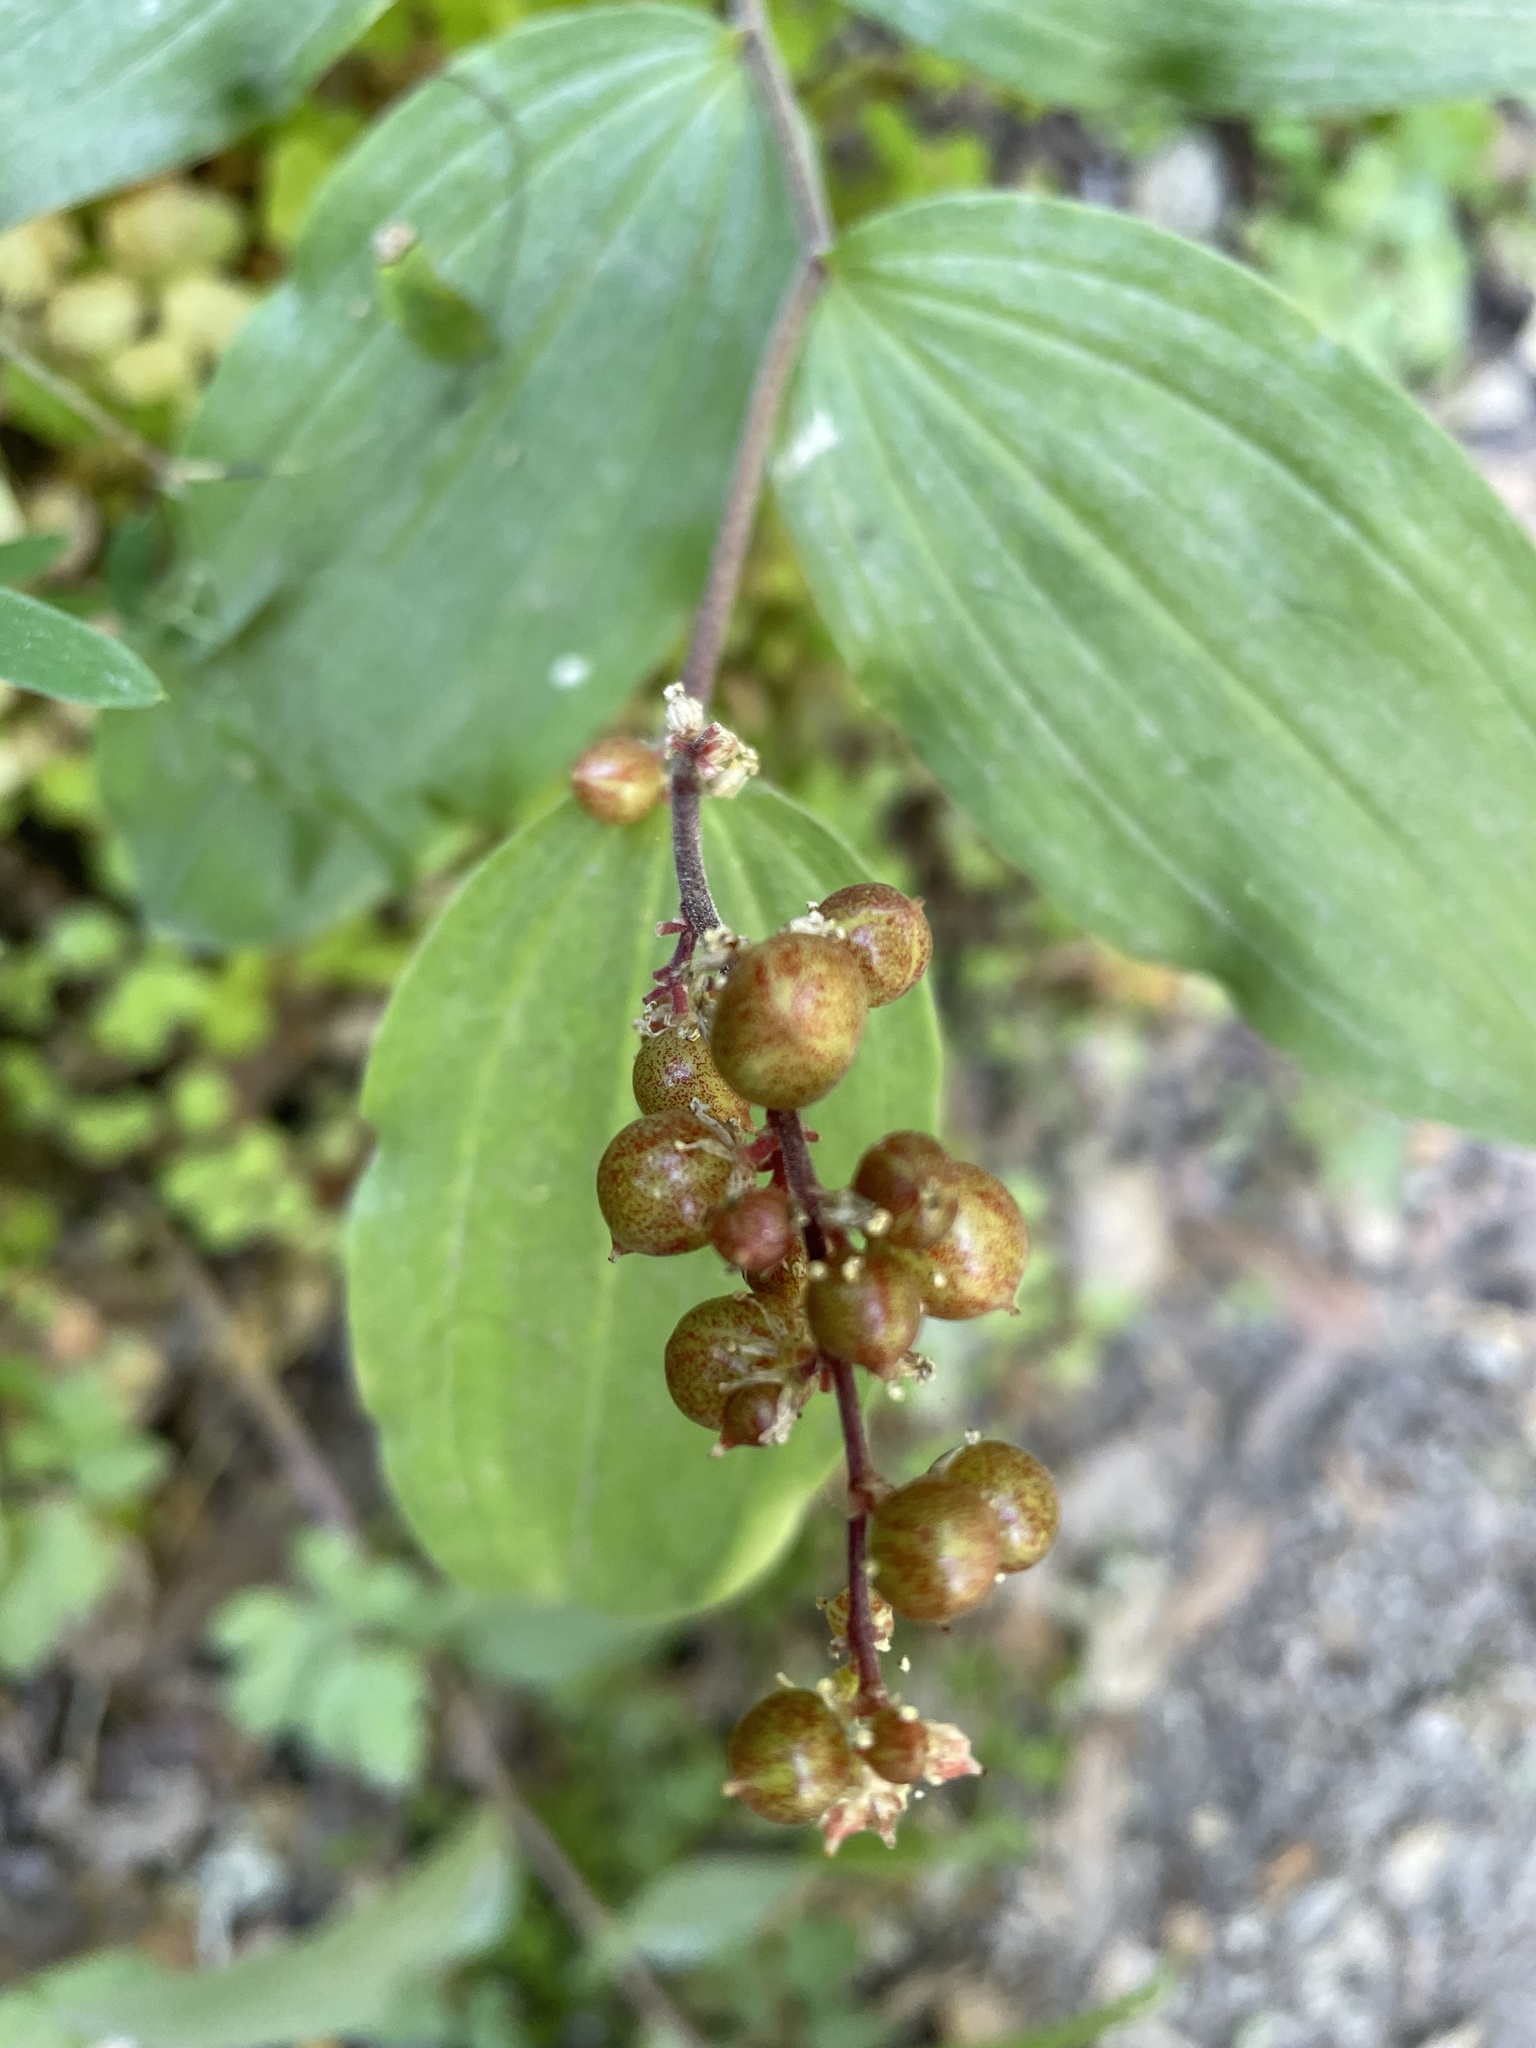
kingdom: Plantae
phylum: Tracheophyta
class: Liliopsida
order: Asparagales
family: Asparagaceae
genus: Maianthemum
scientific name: Maianthemum racemosum
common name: False spikenard
